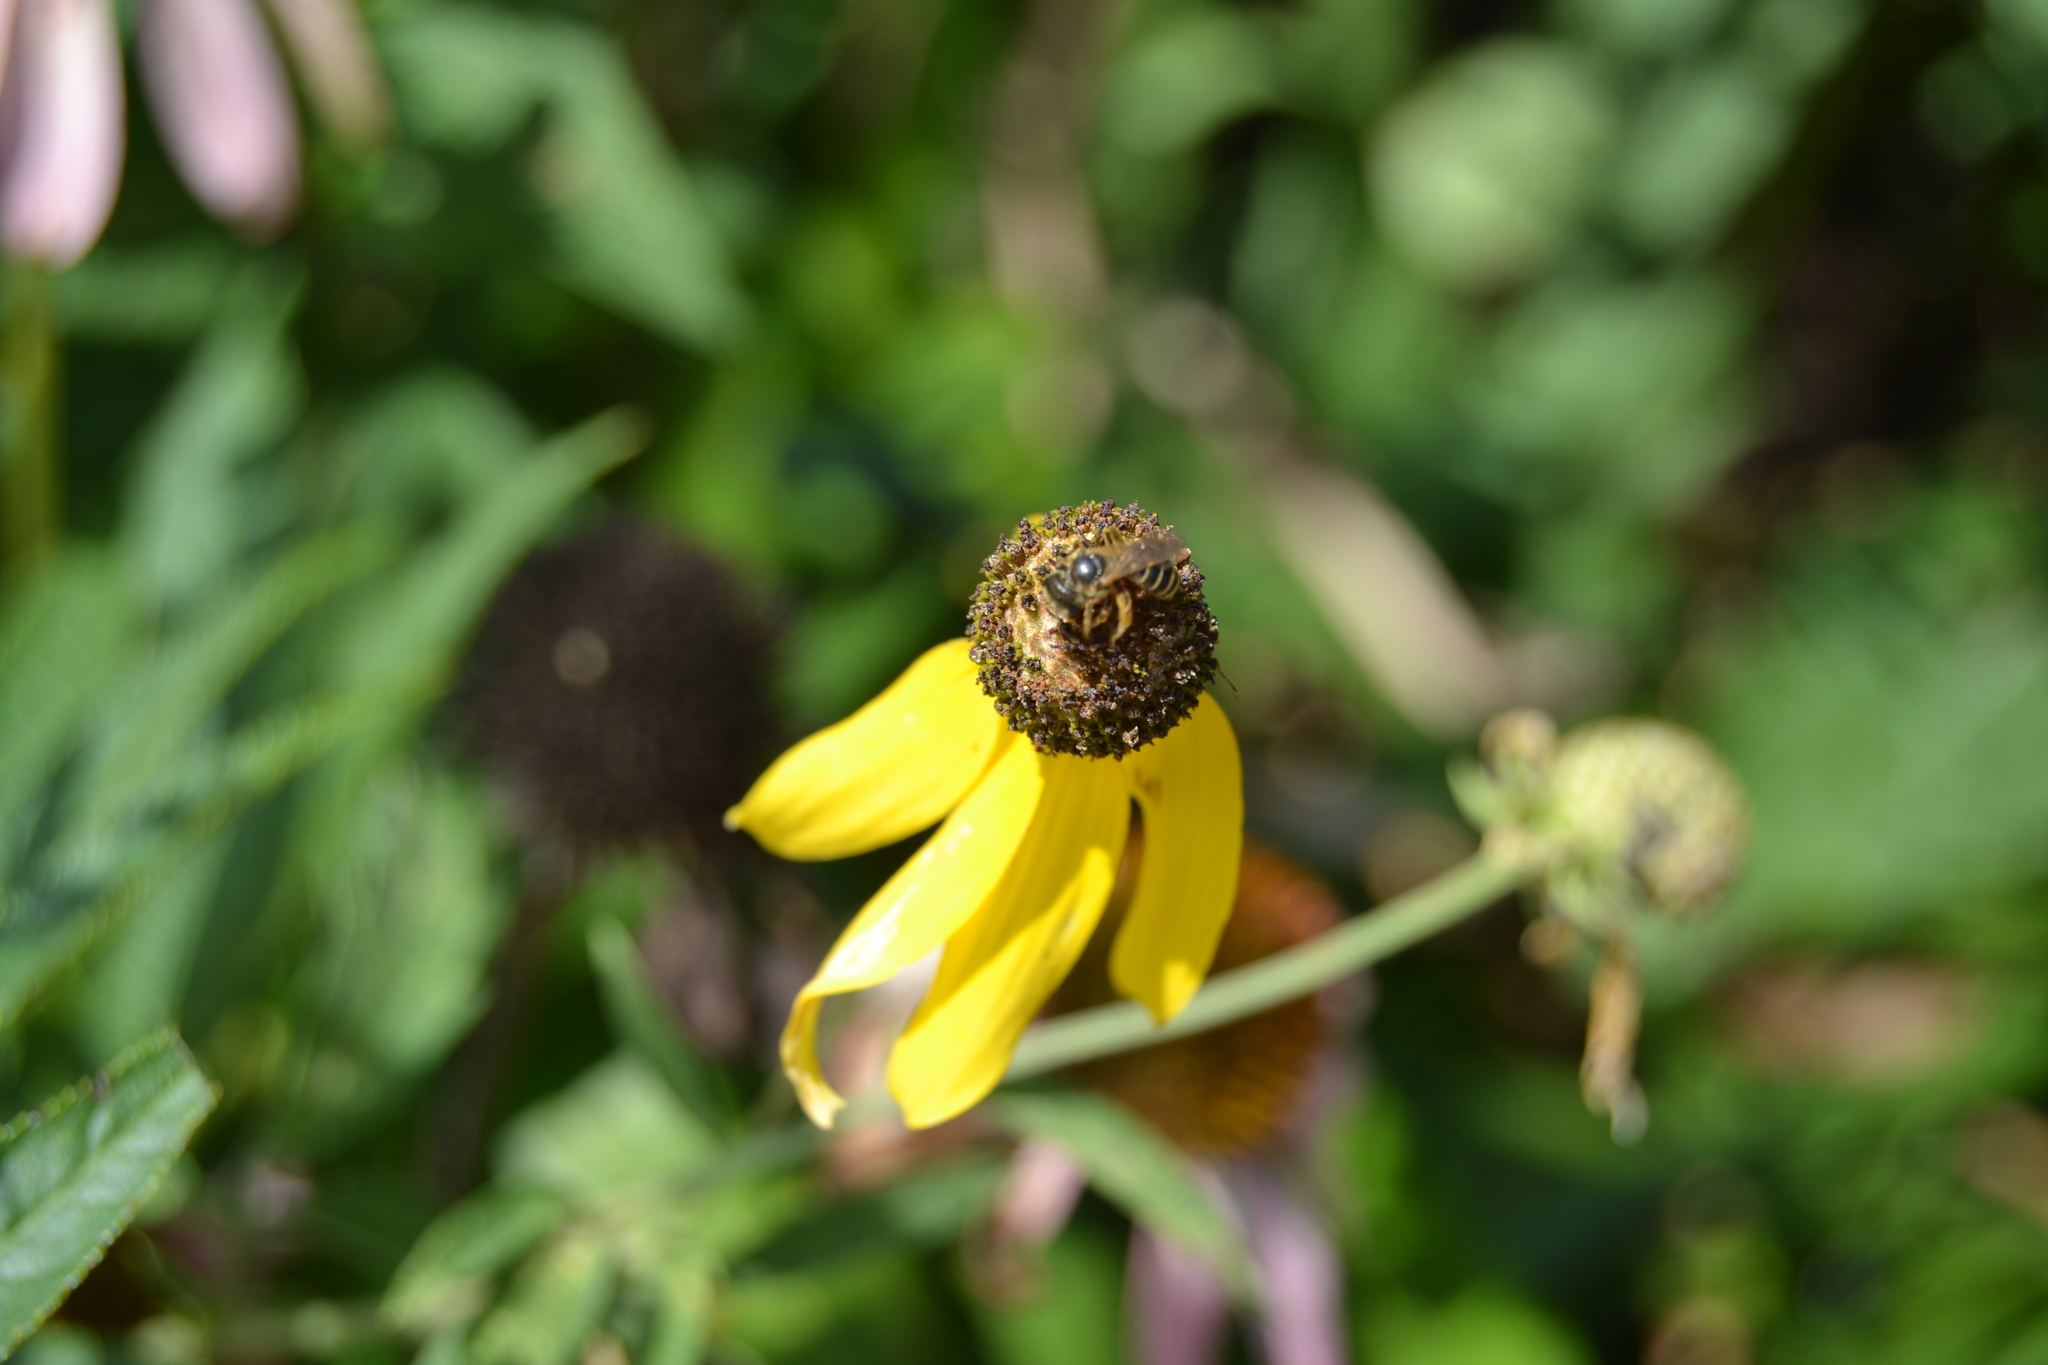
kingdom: Animalia
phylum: Arthropoda
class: Insecta
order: Hymenoptera
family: Halictidae
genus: Halictus
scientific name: Halictus ligatus
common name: Ligated furrow bee
